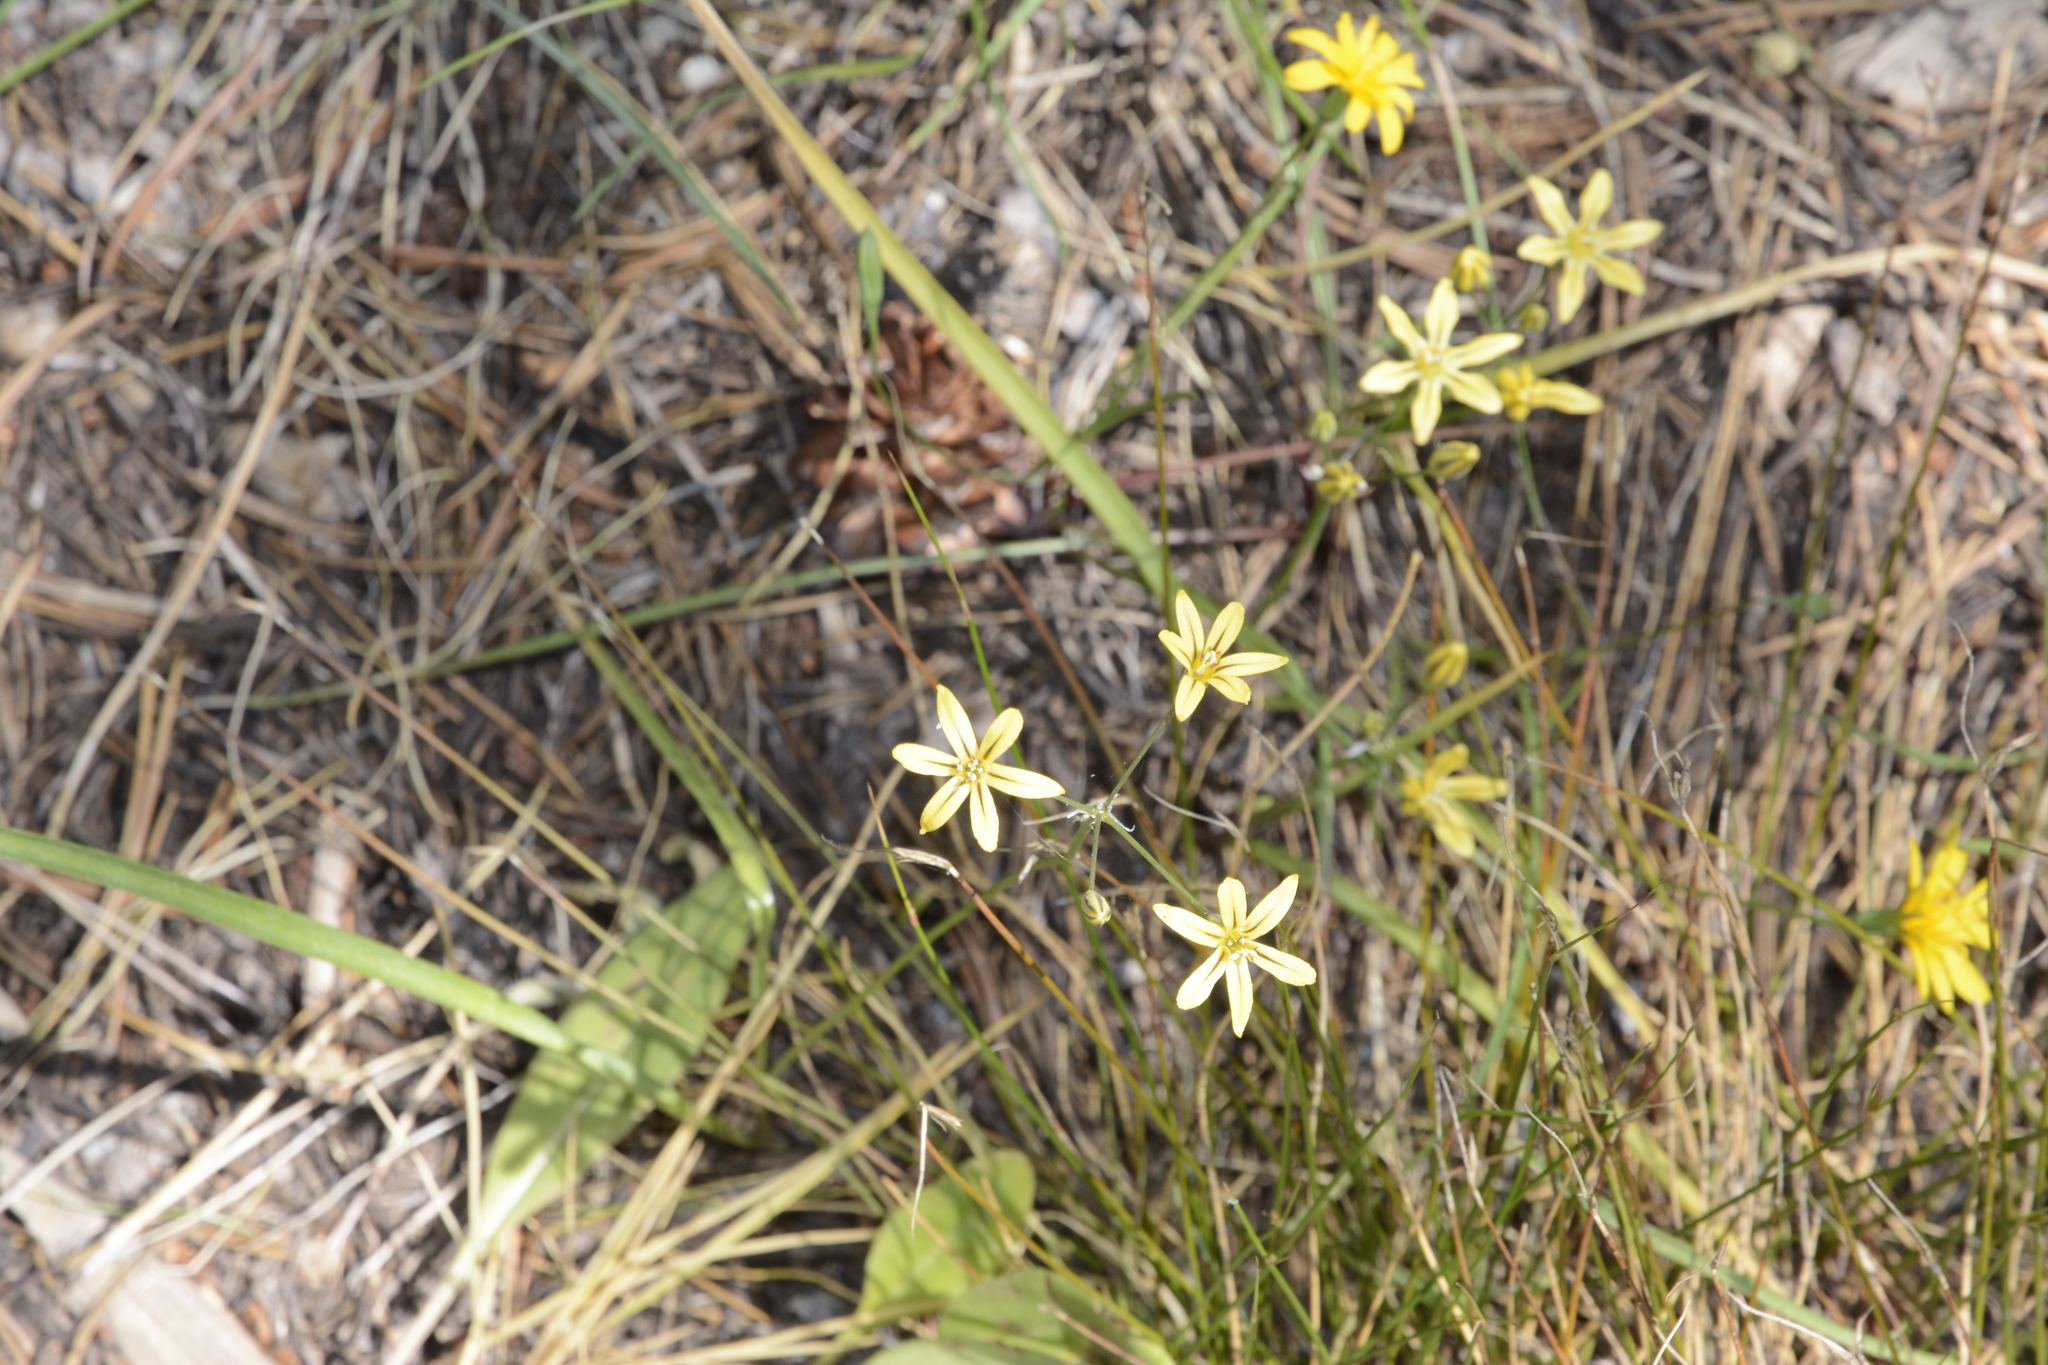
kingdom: Plantae
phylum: Tracheophyta
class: Liliopsida
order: Asparagales
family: Asparagaceae
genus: Triteleia
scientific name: Triteleia ixioides
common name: Yellow-brodiaea
